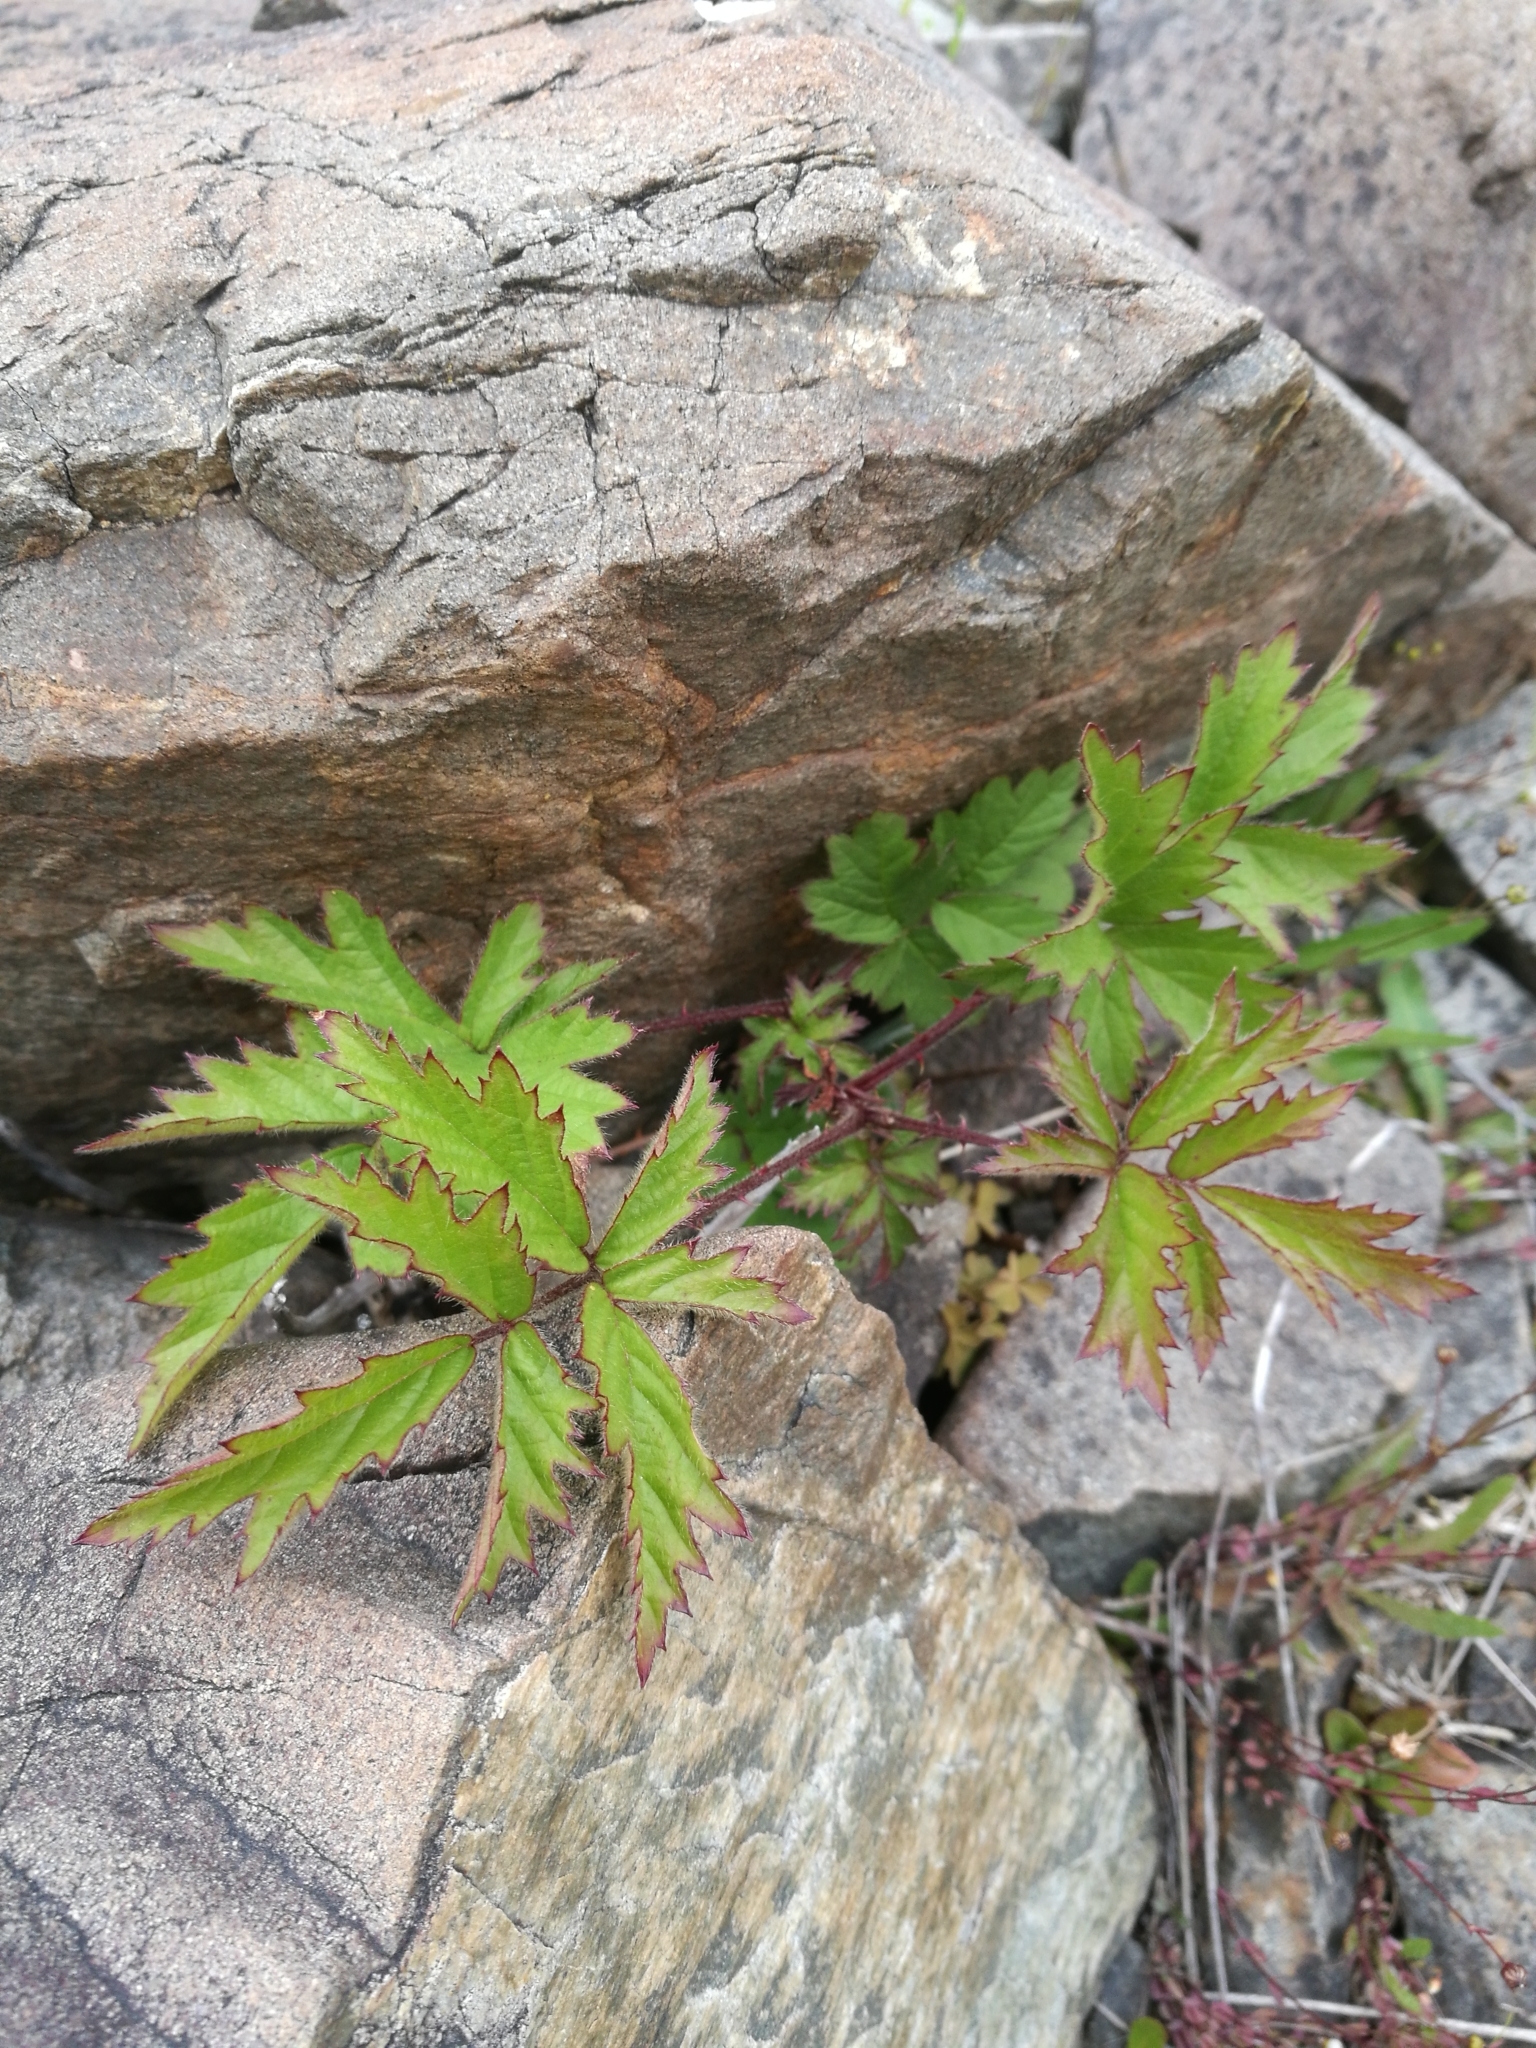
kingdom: Plantae
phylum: Tracheophyta
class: Magnoliopsida
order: Rosales
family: Rosaceae
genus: Rubus
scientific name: Rubus laciniatus
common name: Evergreen blackberry
